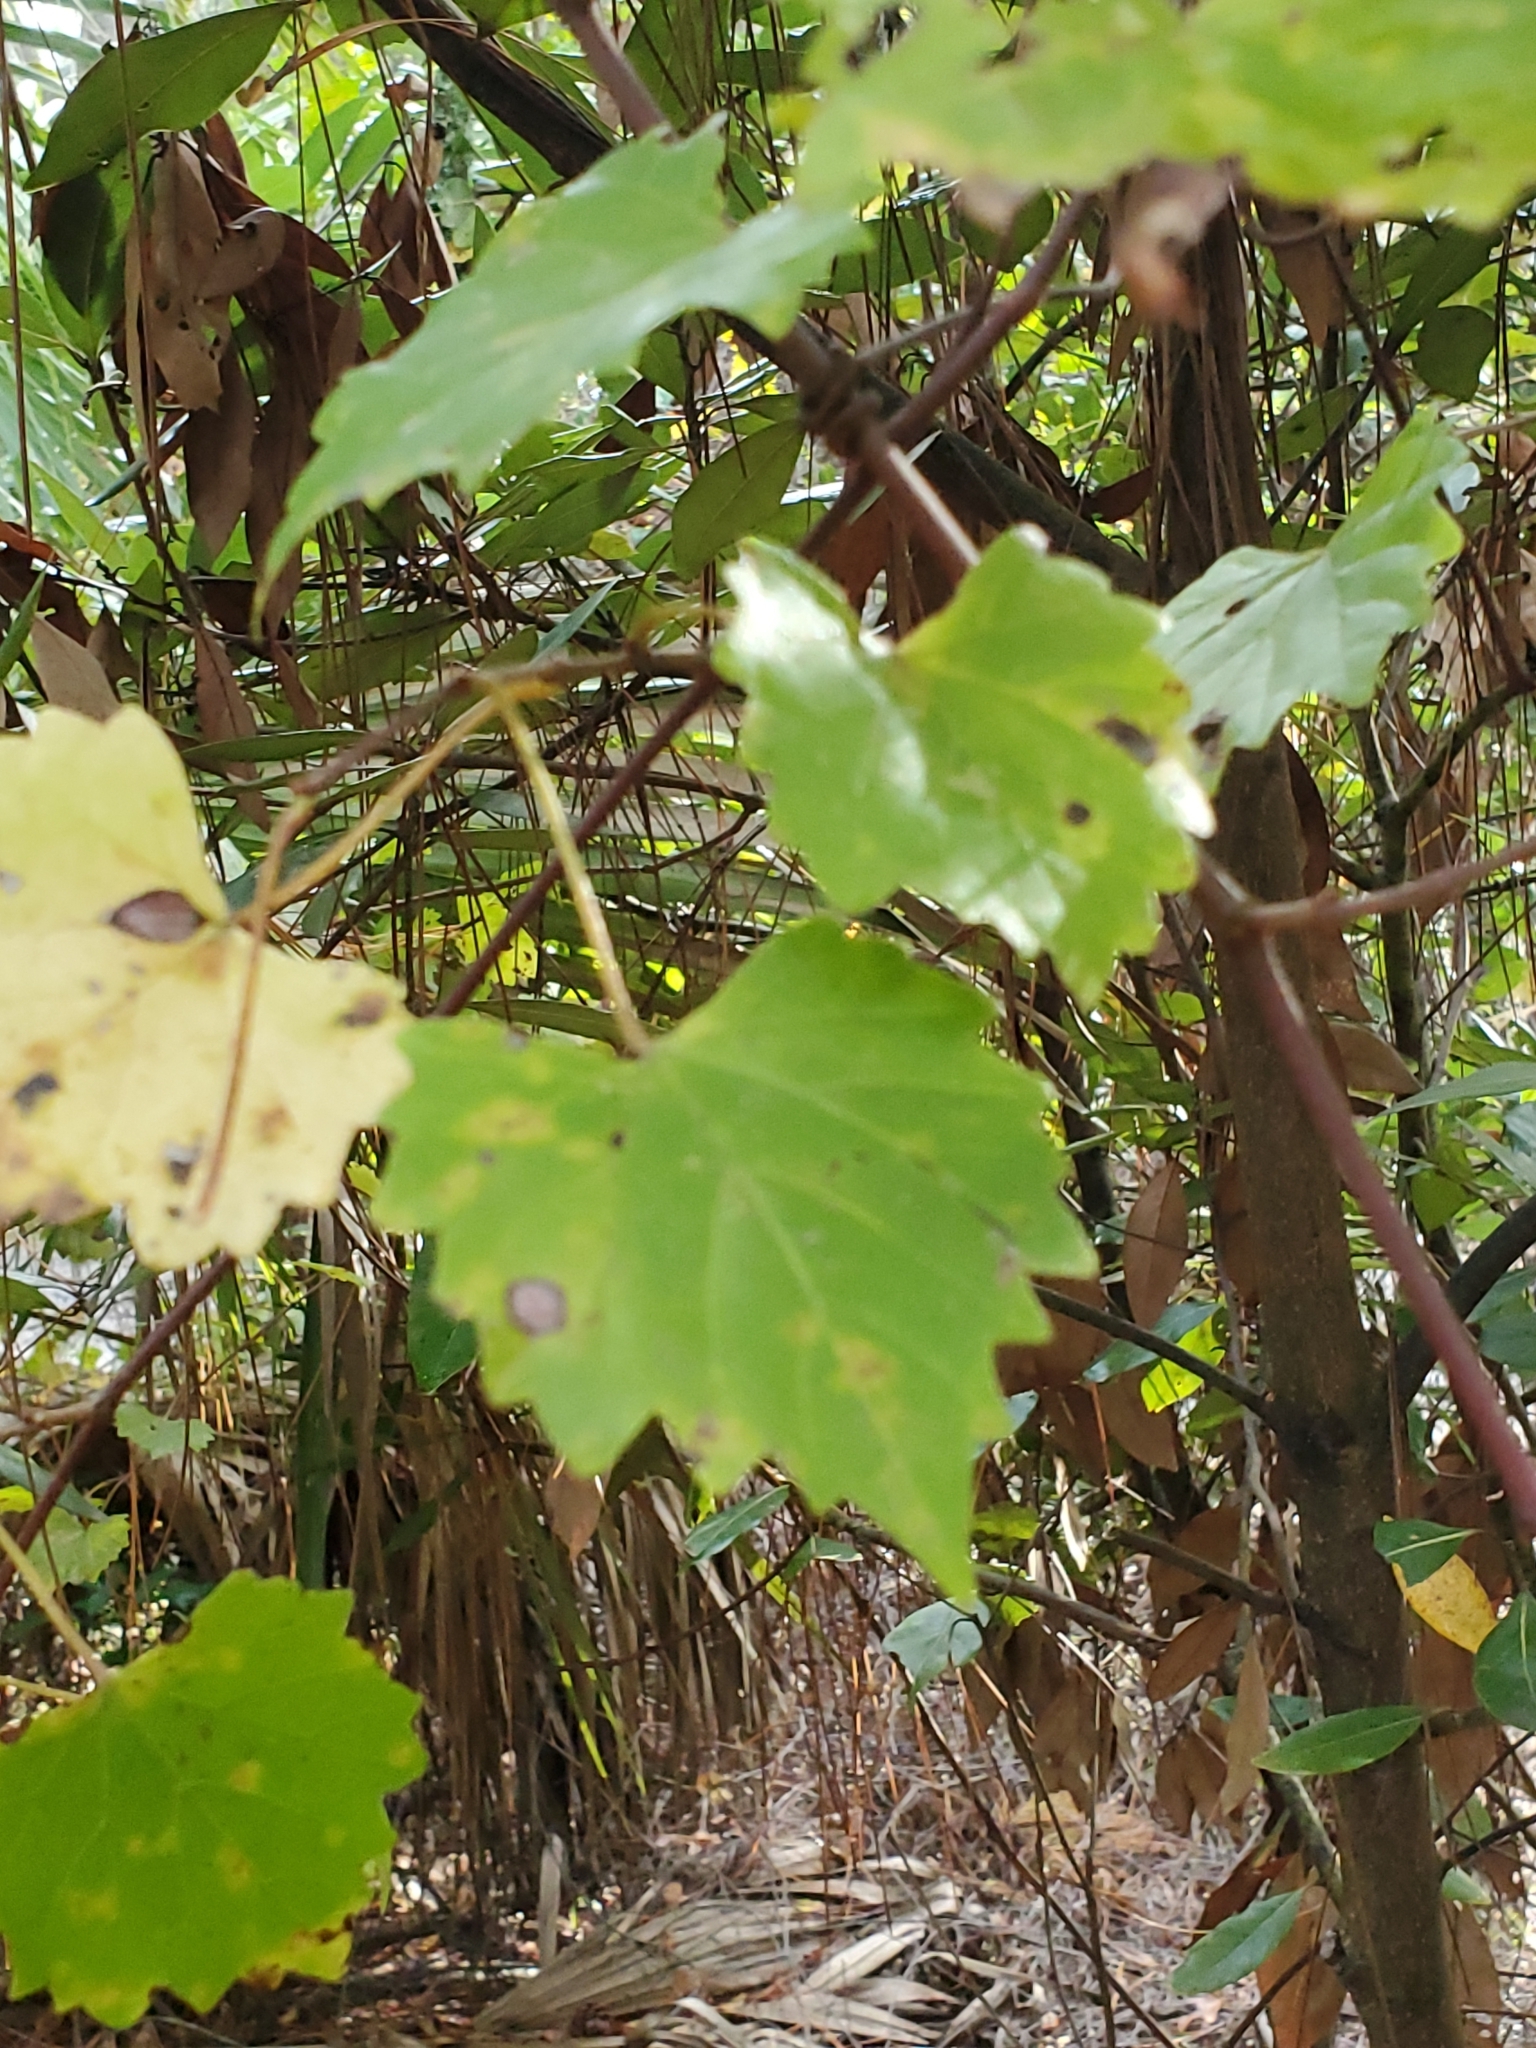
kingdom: Plantae
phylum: Tracheophyta
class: Magnoliopsida
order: Vitales
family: Vitaceae
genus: Vitis
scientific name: Vitis rotundifolia
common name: Muscadine grape
